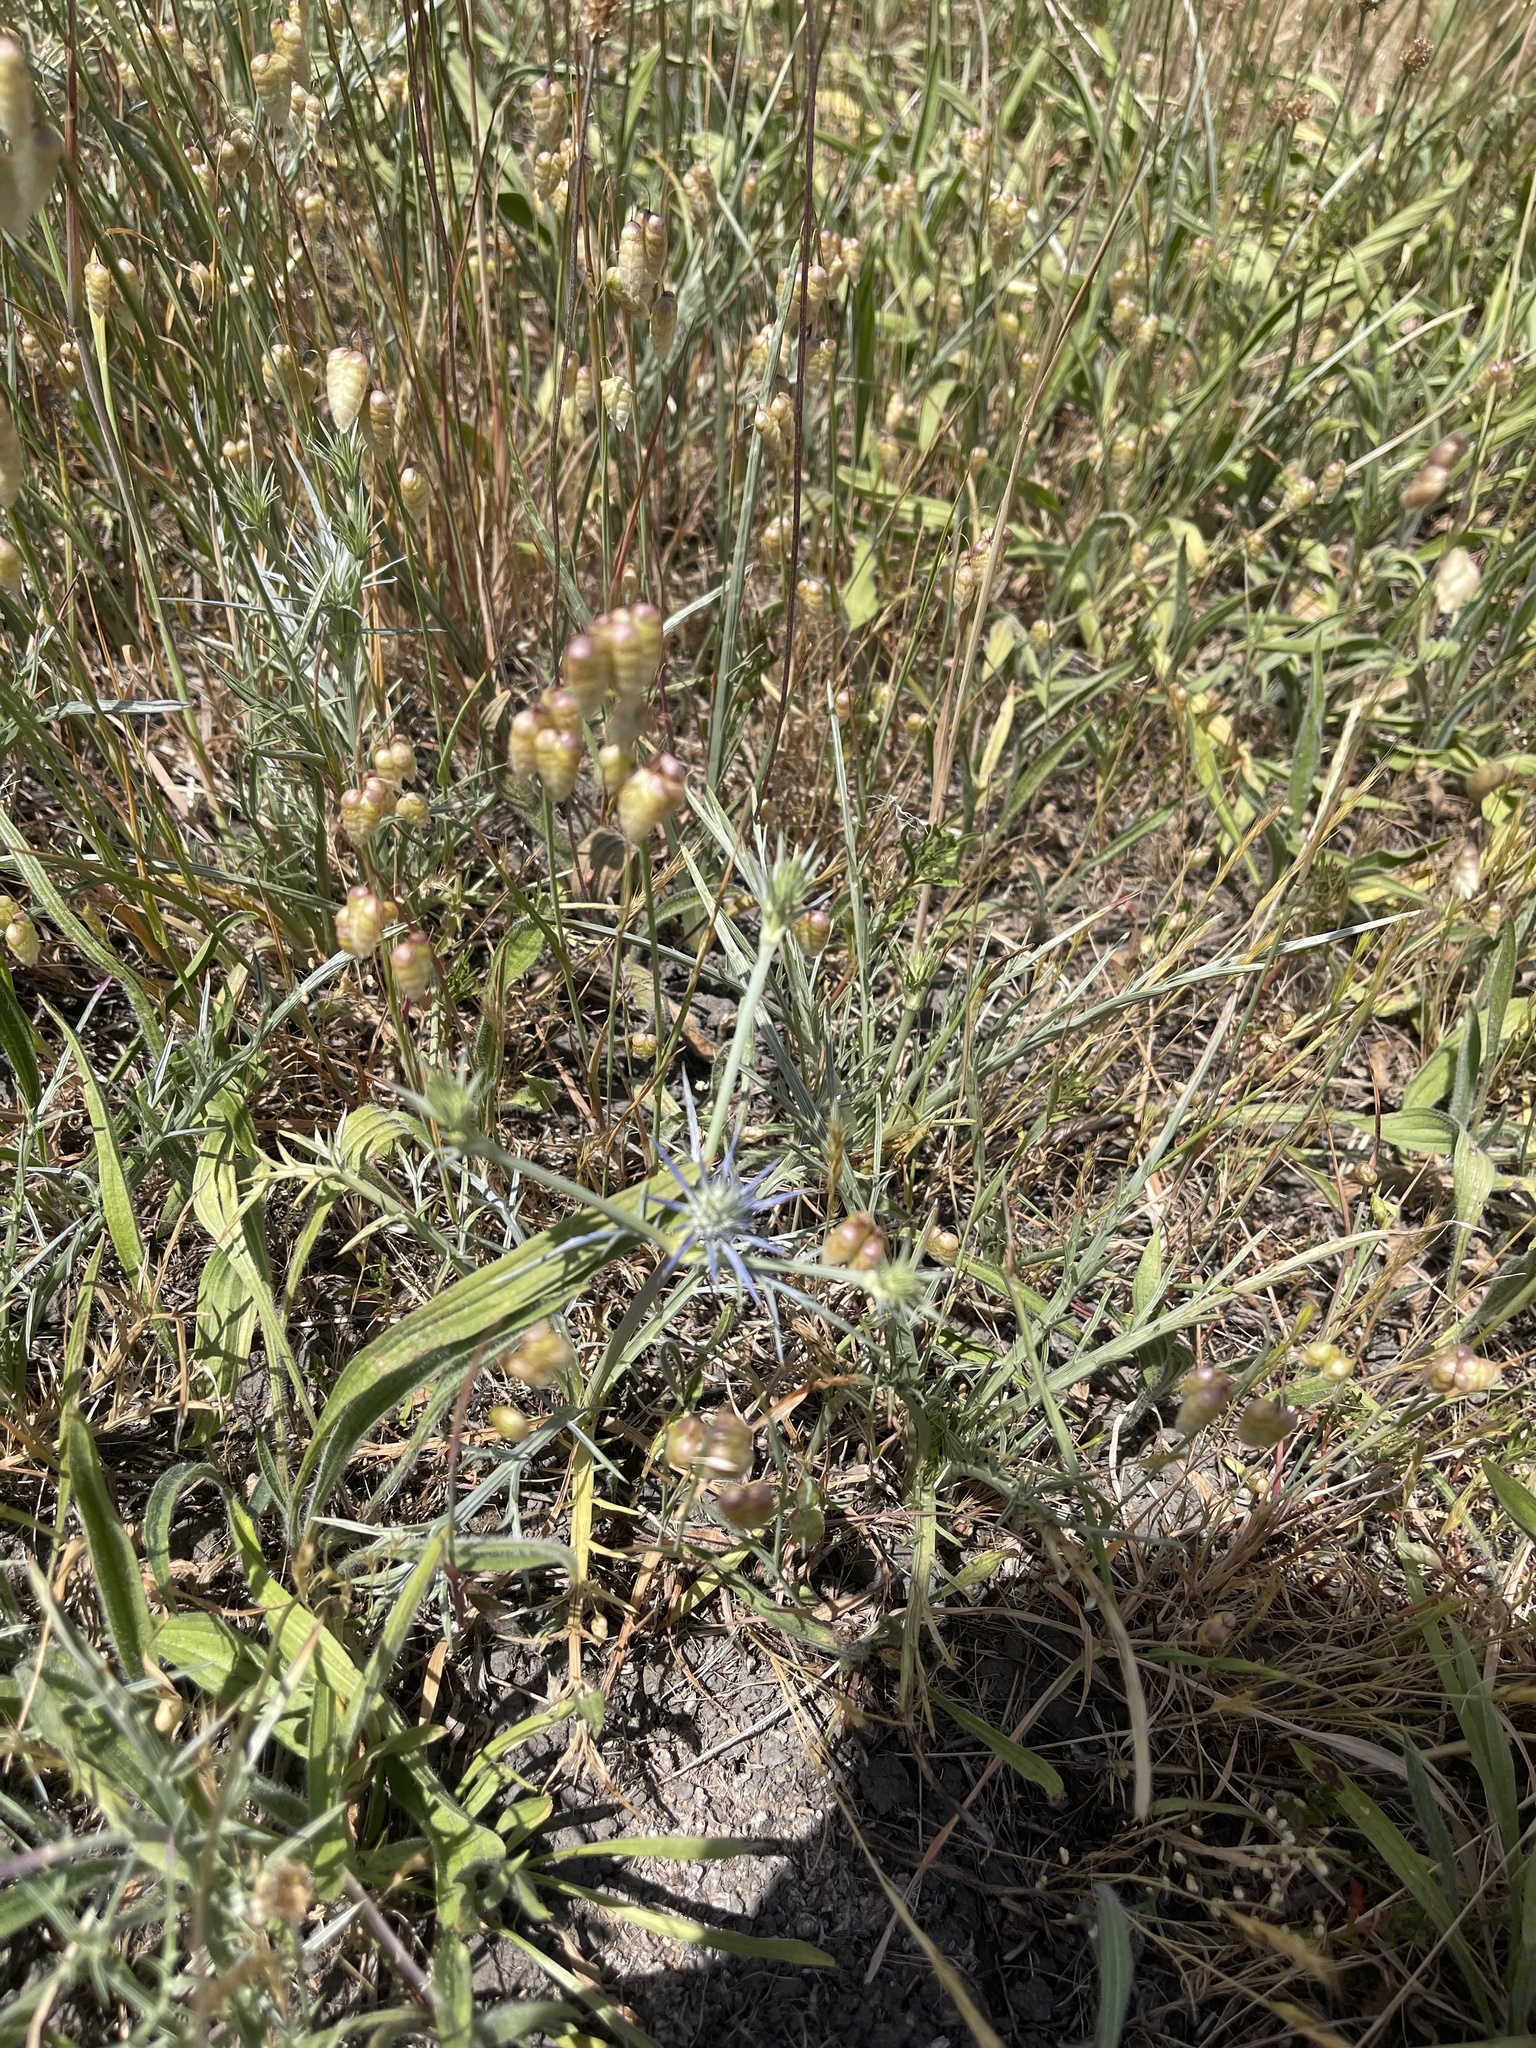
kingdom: Plantae
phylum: Tracheophyta
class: Magnoliopsida
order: Apiales
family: Apiaceae
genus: Eryngium
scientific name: Eryngium ovinum
